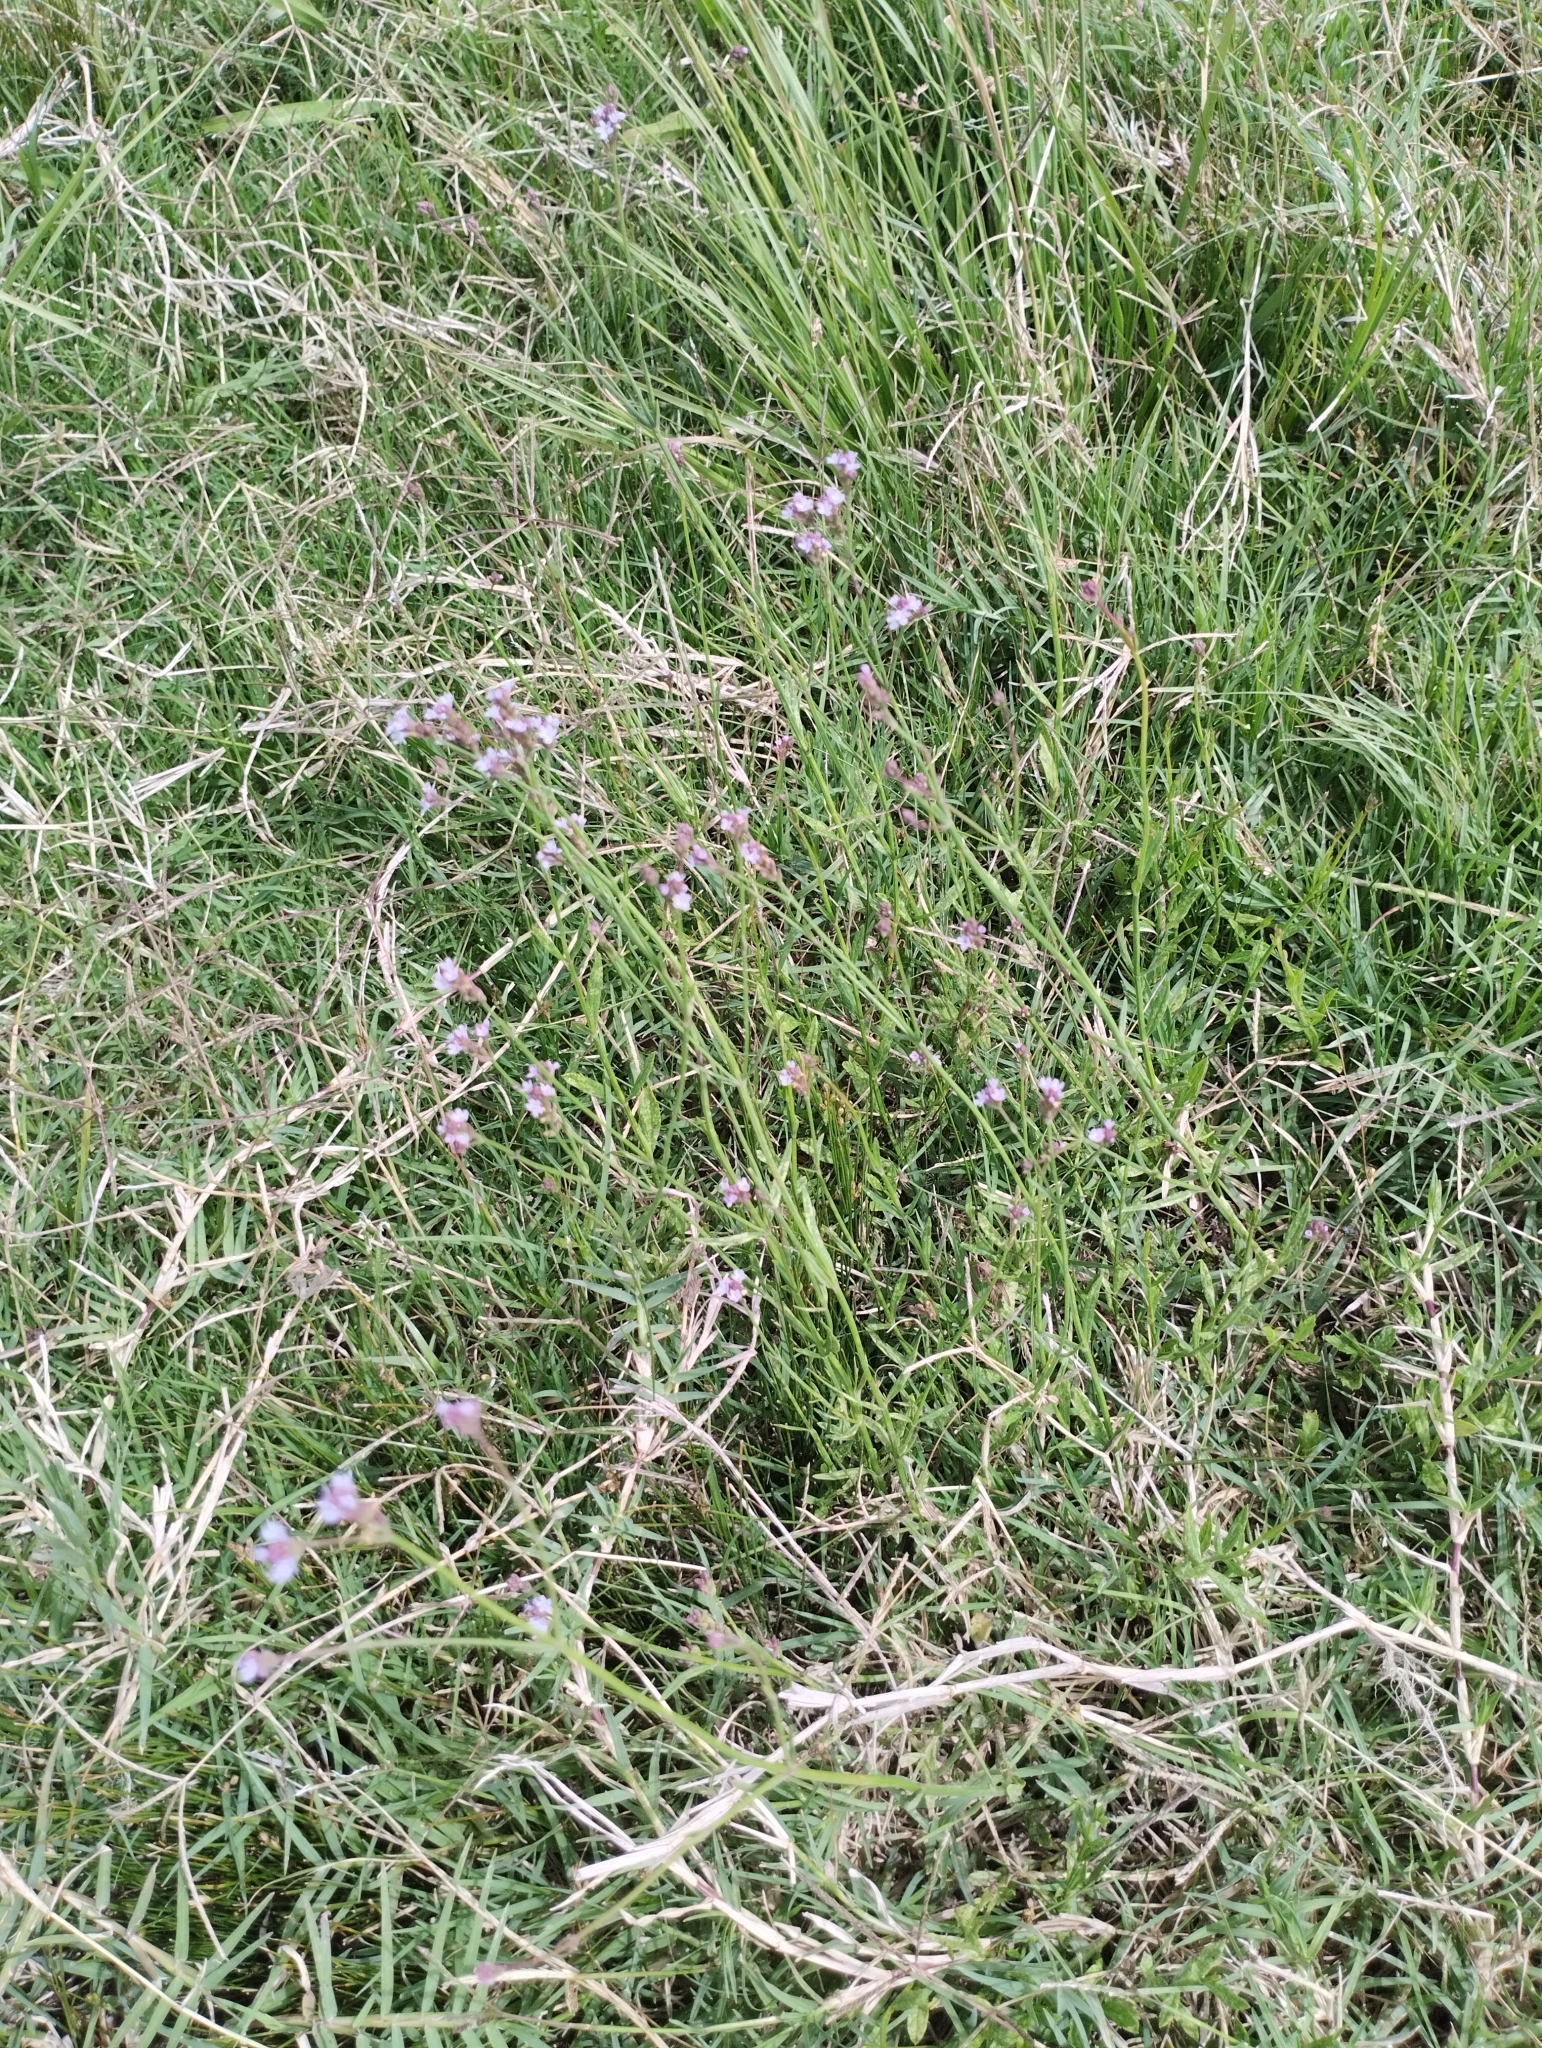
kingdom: Plantae
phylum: Tracheophyta
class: Magnoliopsida
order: Lamiales
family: Verbenaceae
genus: Verbena
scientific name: Verbena montevidensis
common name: Uruguayan vervain
